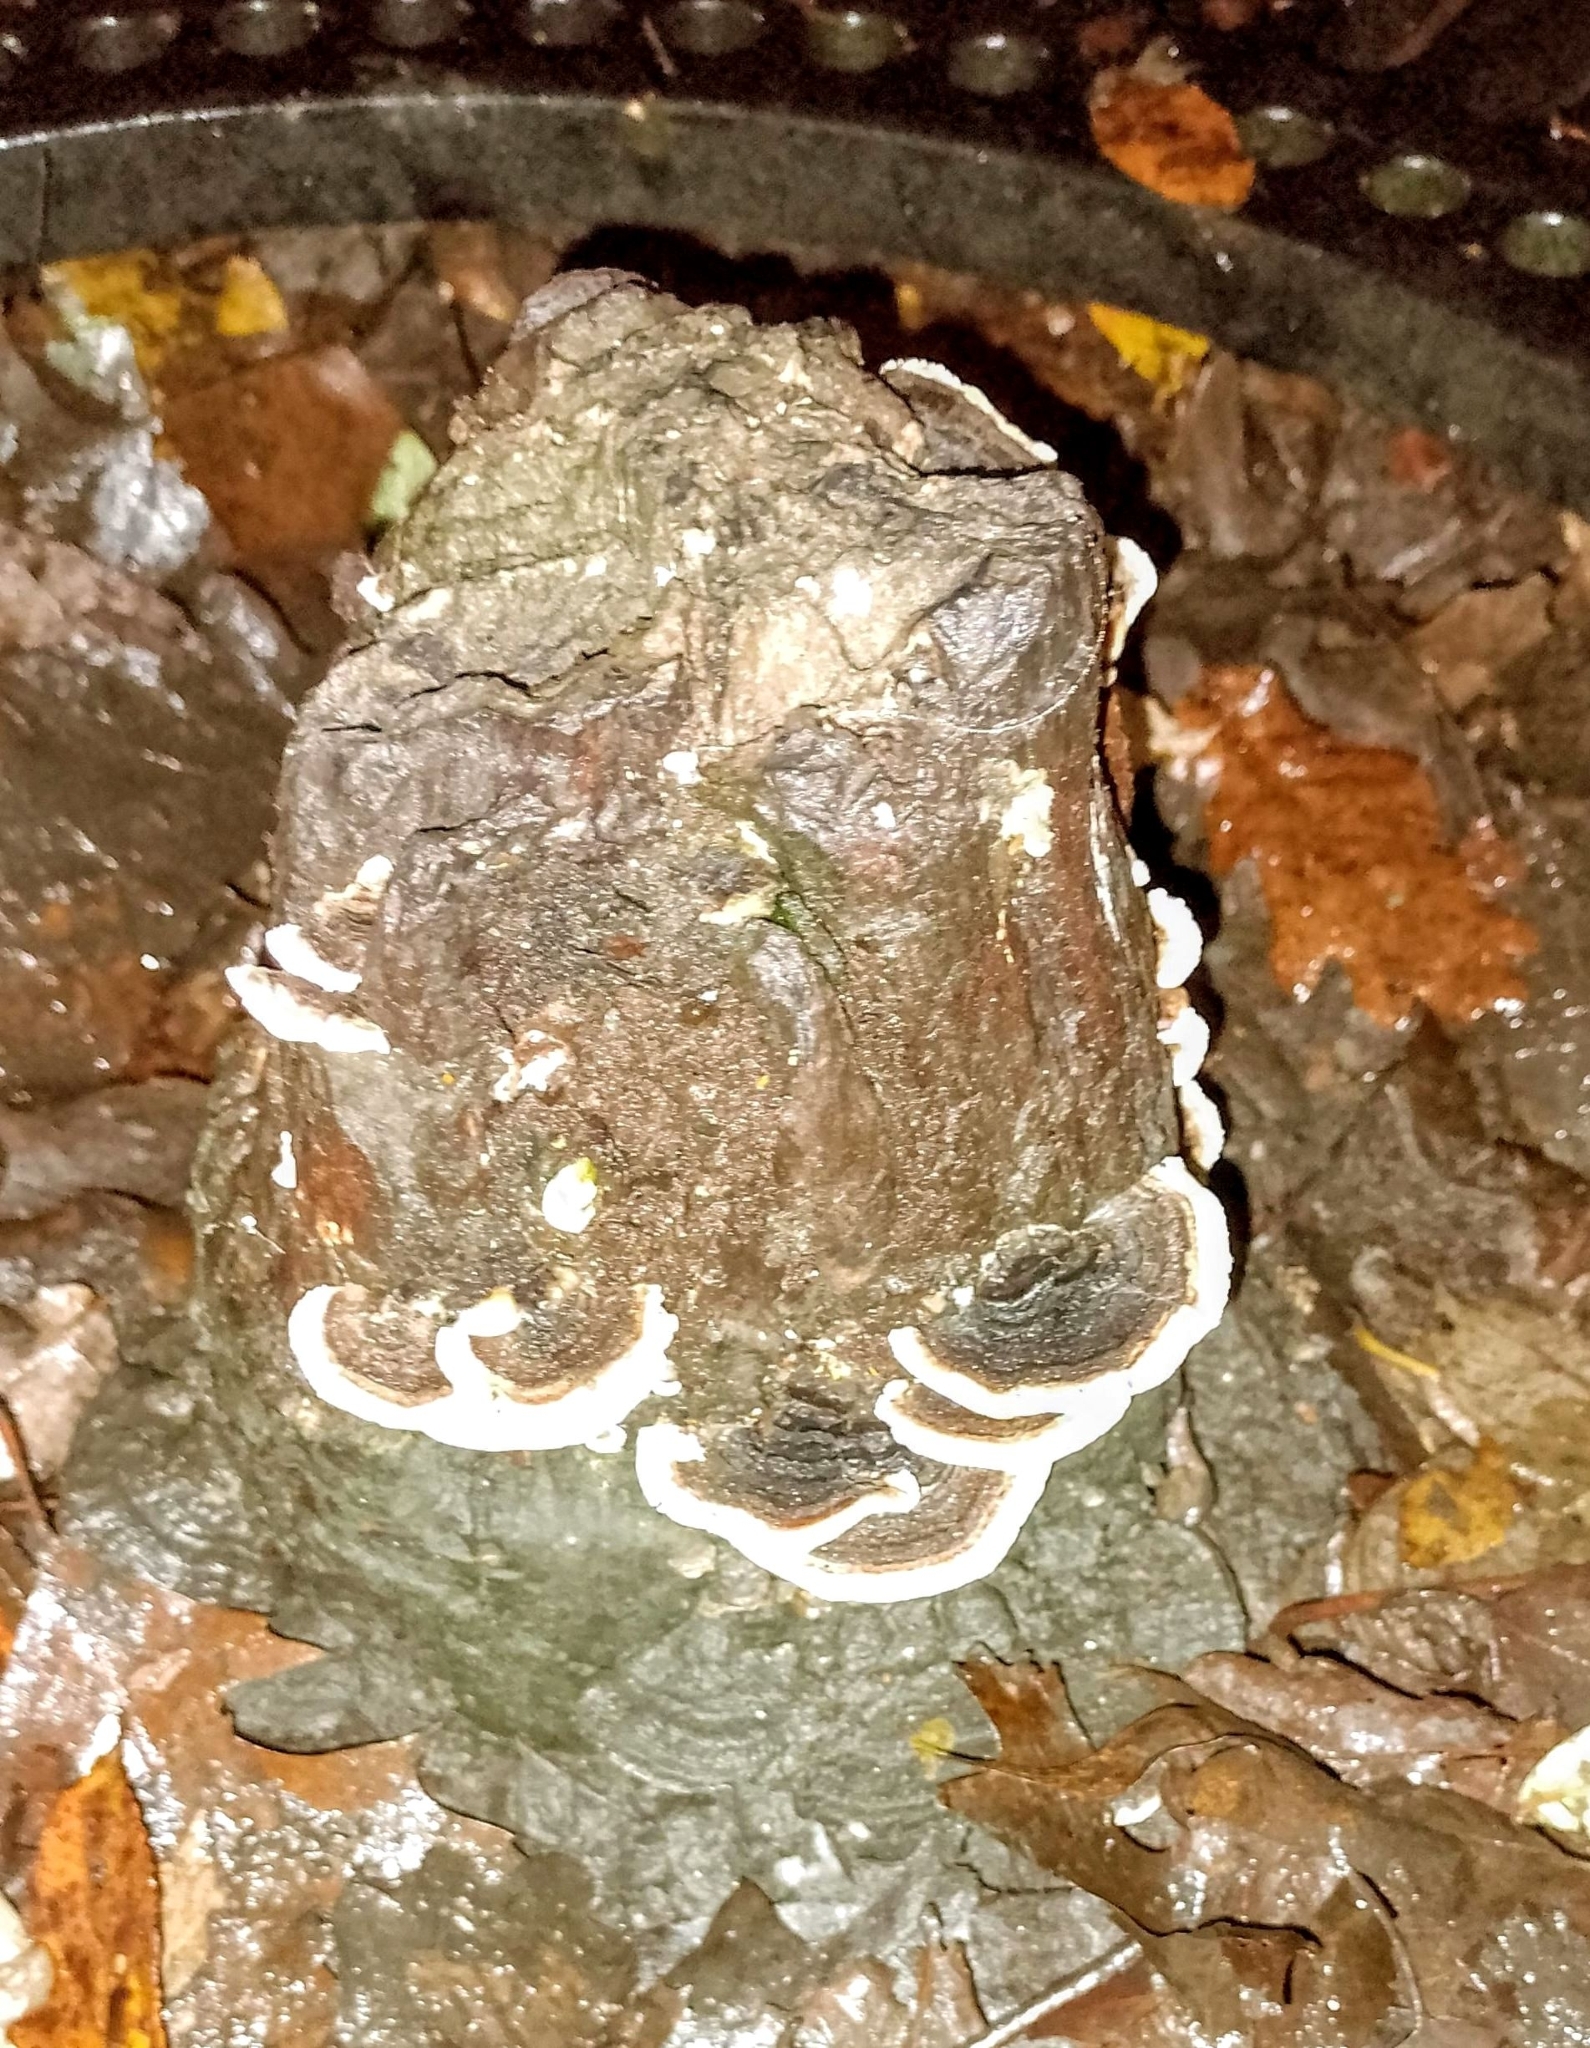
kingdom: Fungi
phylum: Basidiomycota
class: Agaricomycetes
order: Polyporales
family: Polyporaceae
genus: Trametes
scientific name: Trametes versicolor
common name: Turkeytail
